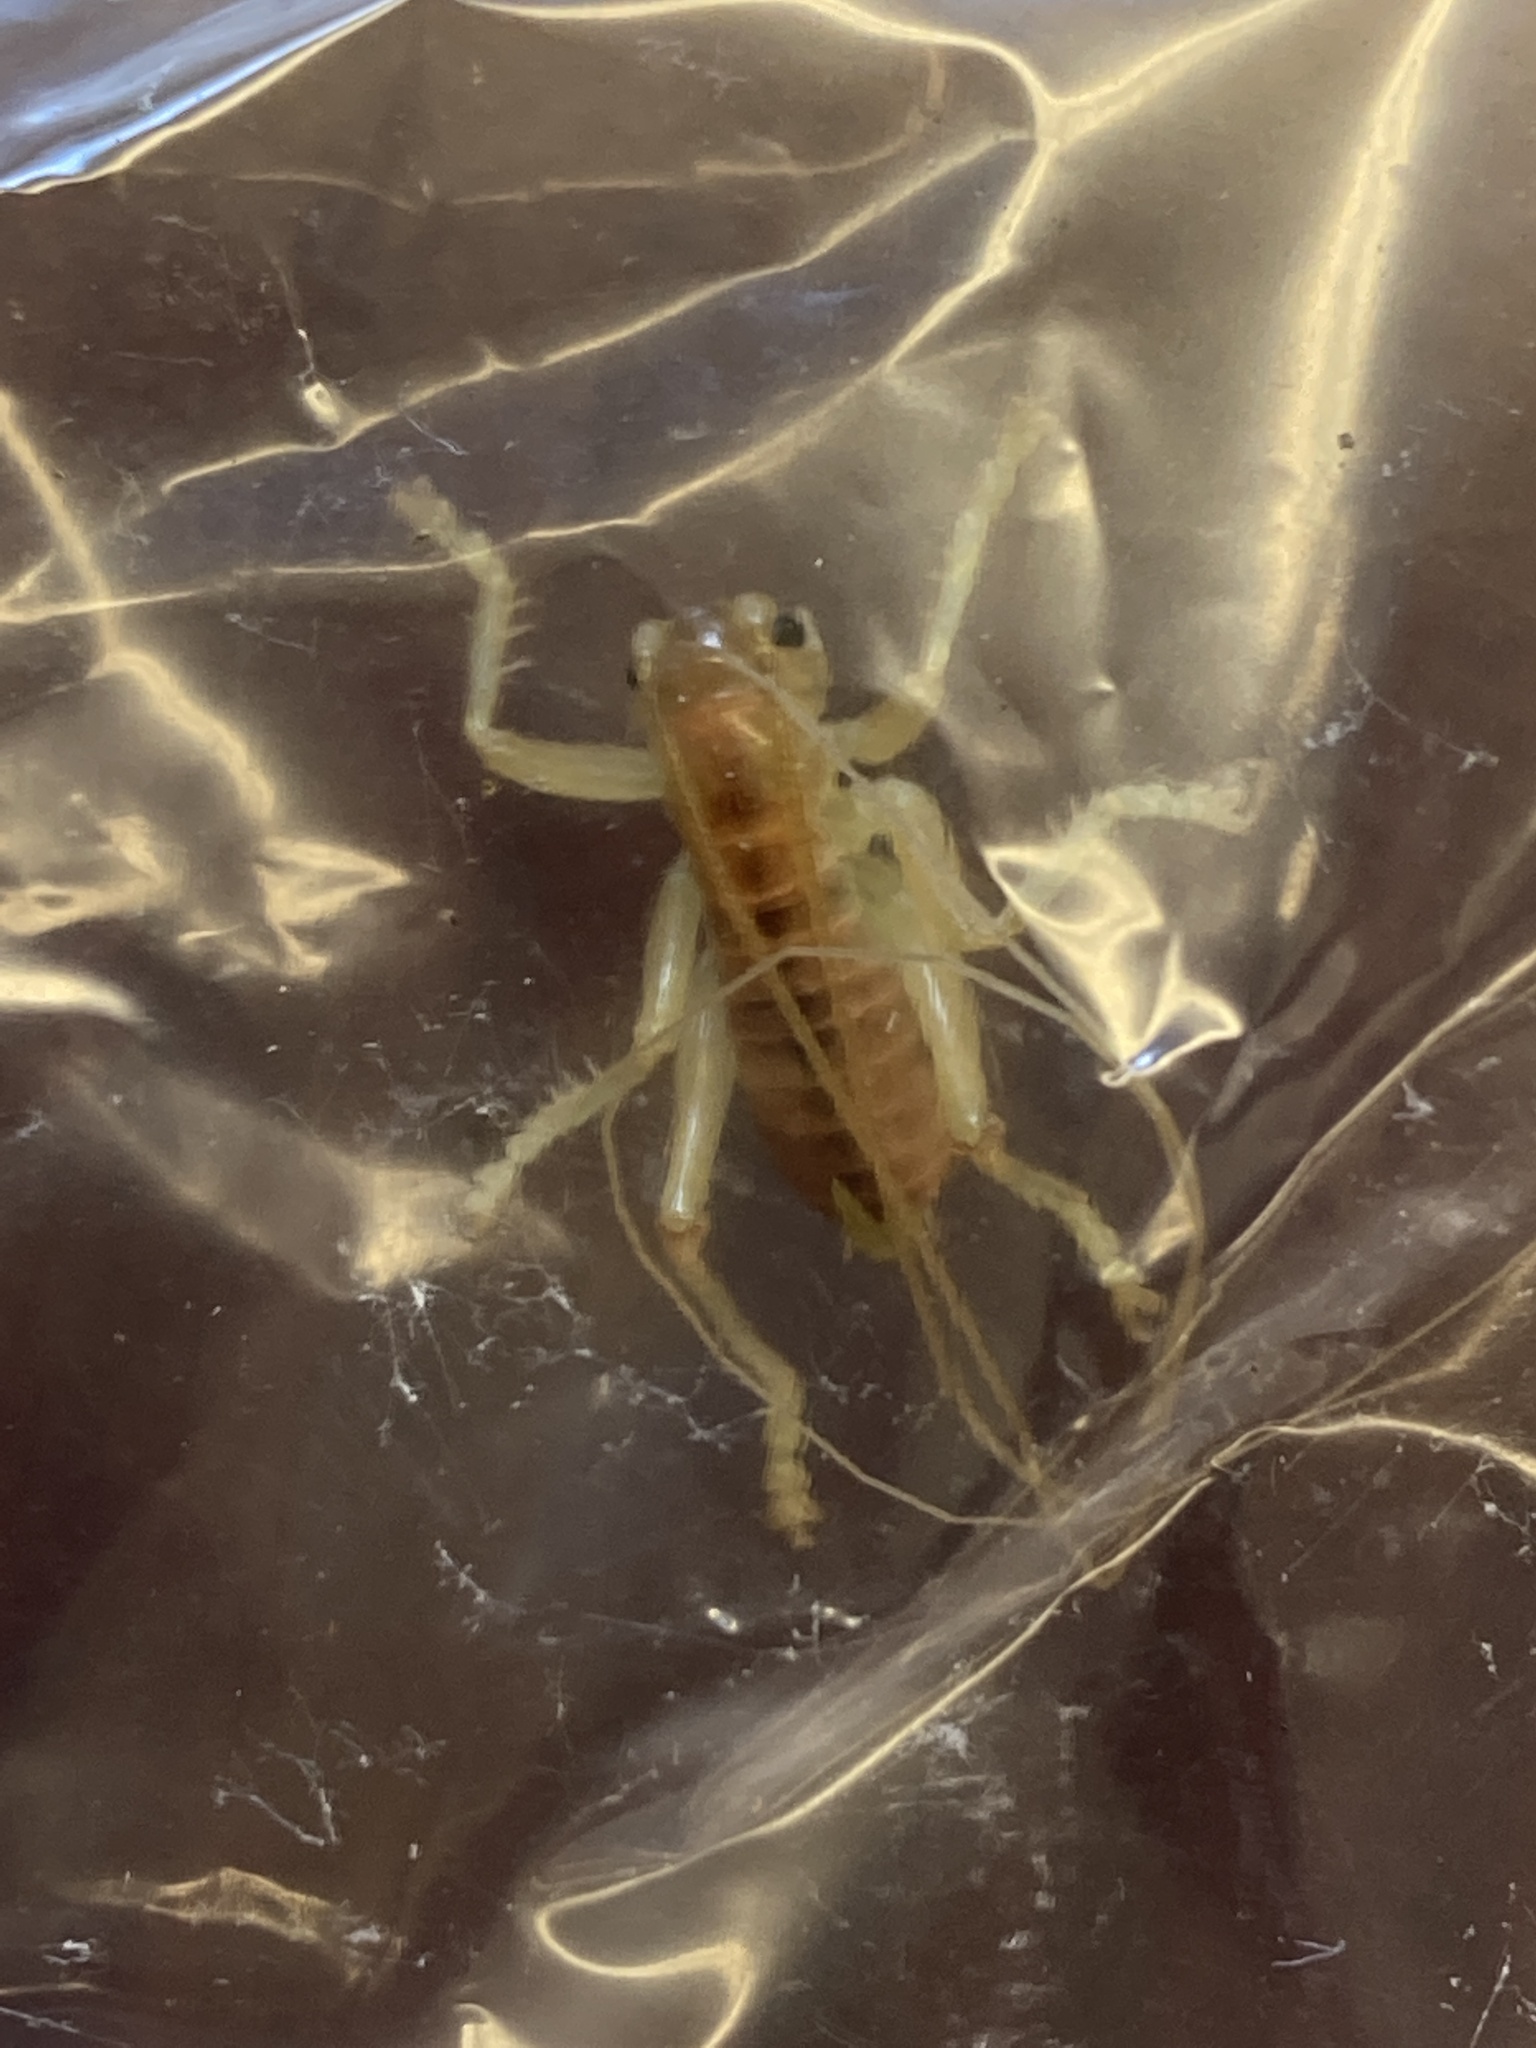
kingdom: Animalia
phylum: Arthropoda
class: Insecta
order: Orthoptera
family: Gryllacrididae
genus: Camptonotus
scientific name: Camptonotus carolinensis
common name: Carolina leaf-roller
